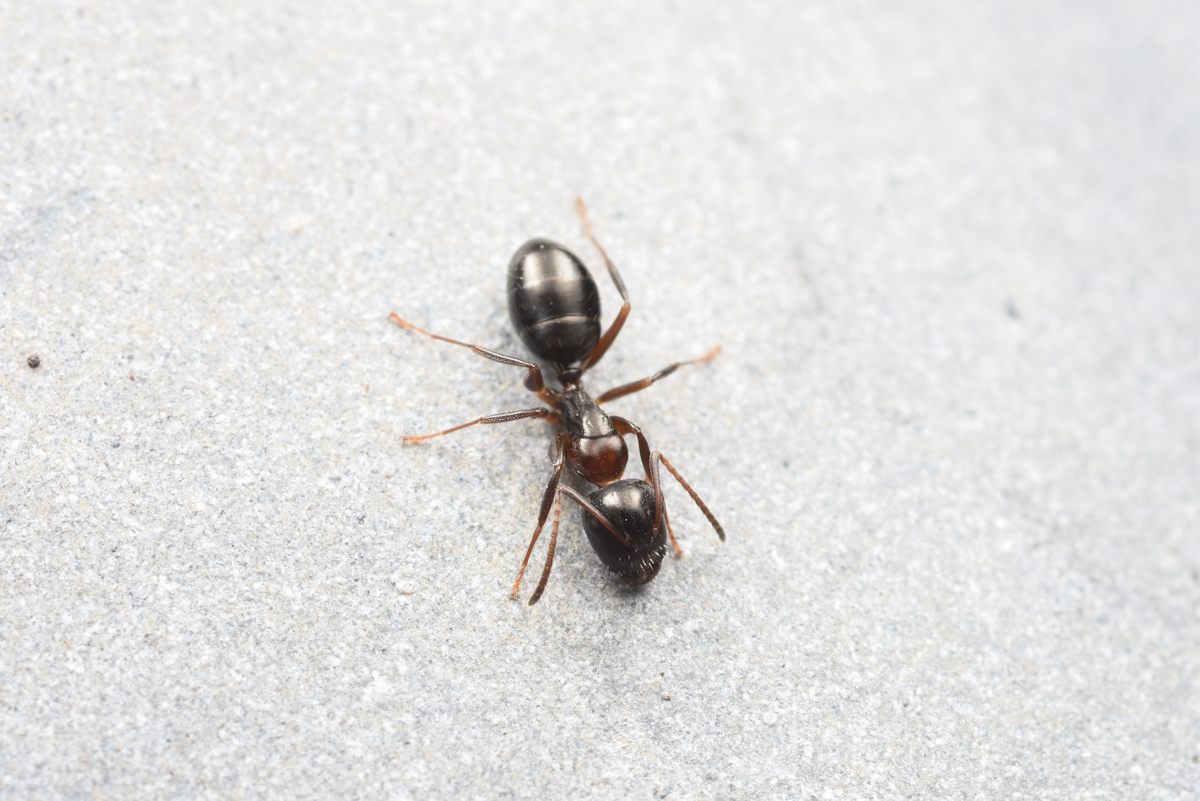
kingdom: Animalia
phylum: Arthropoda
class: Insecta
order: Hymenoptera
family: Formicidae
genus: Camponotus
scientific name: Camponotus vitiosus
